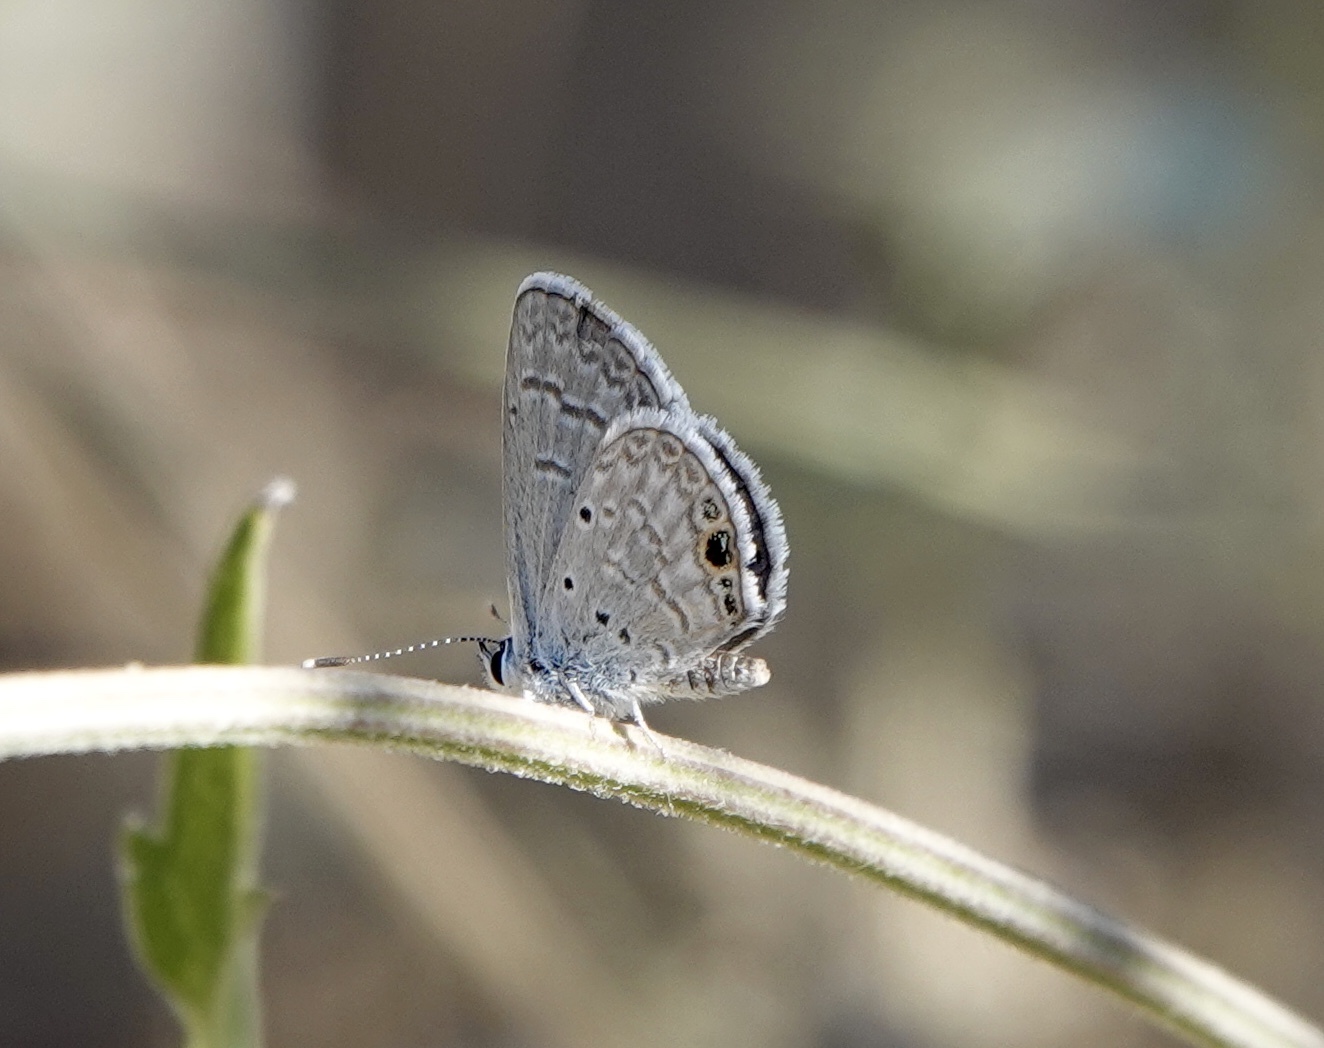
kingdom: Animalia
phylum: Arthropoda
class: Insecta
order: Lepidoptera
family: Lycaenidae
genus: Hemiargus
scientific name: Hemiargus ceraunus
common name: Ceraunus blue
